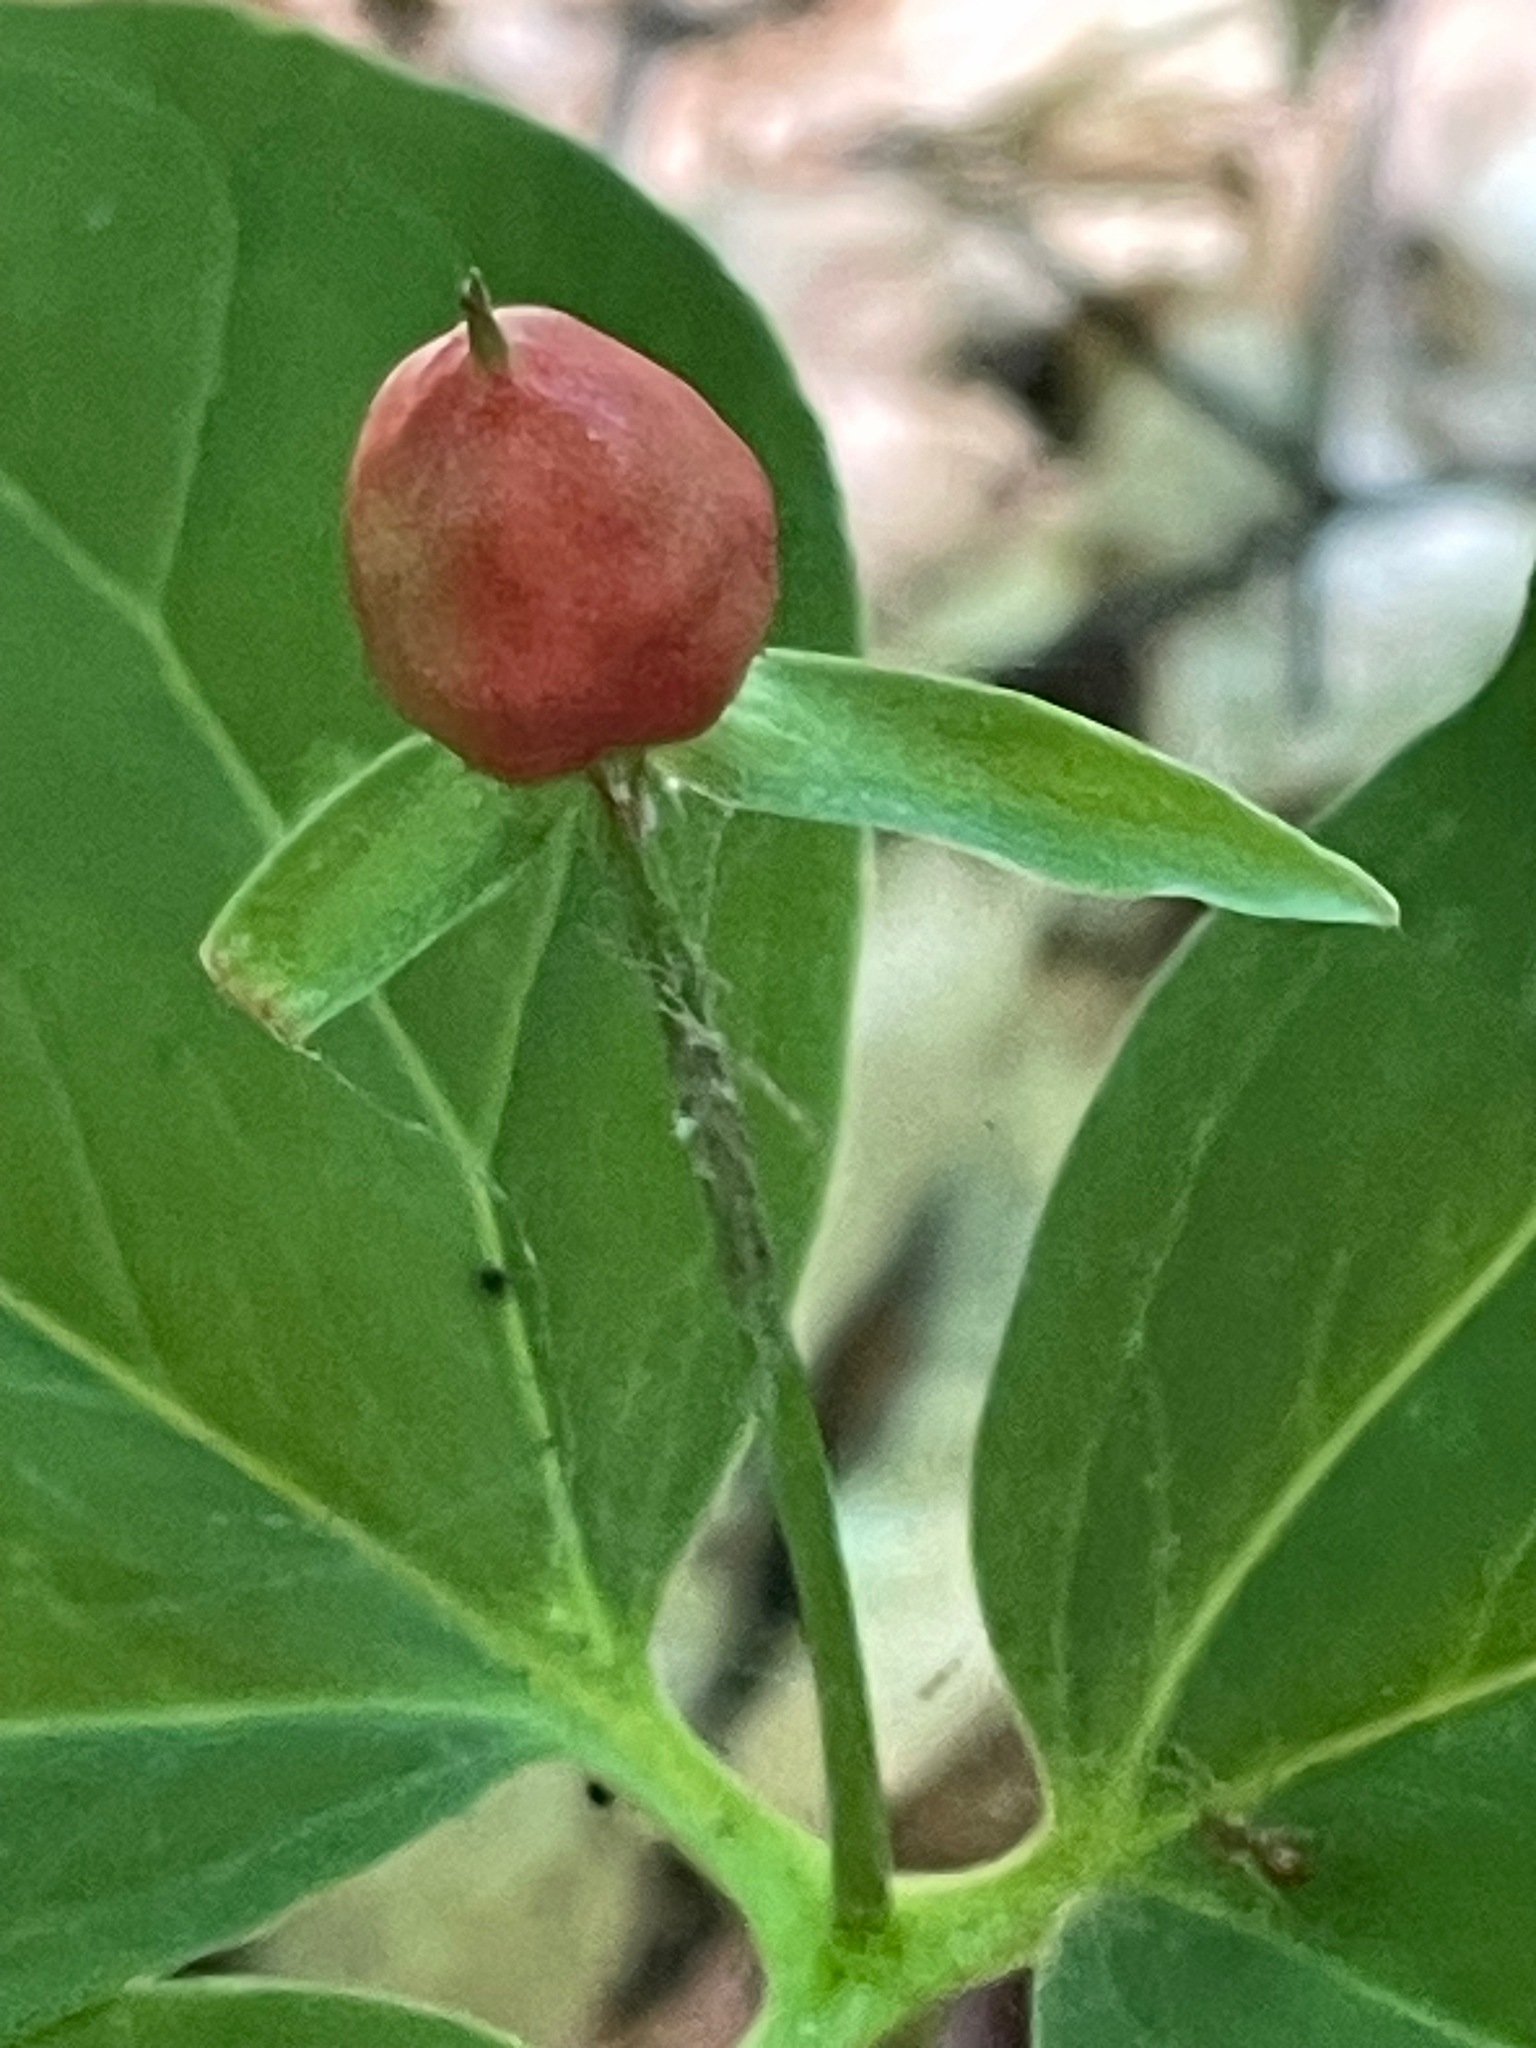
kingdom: Plantae
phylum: Tracheophyta
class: Liliopsida
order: Liliales
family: Melanthiaceae
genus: Trillium
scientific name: Trillium undulatum
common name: Paint trillium
